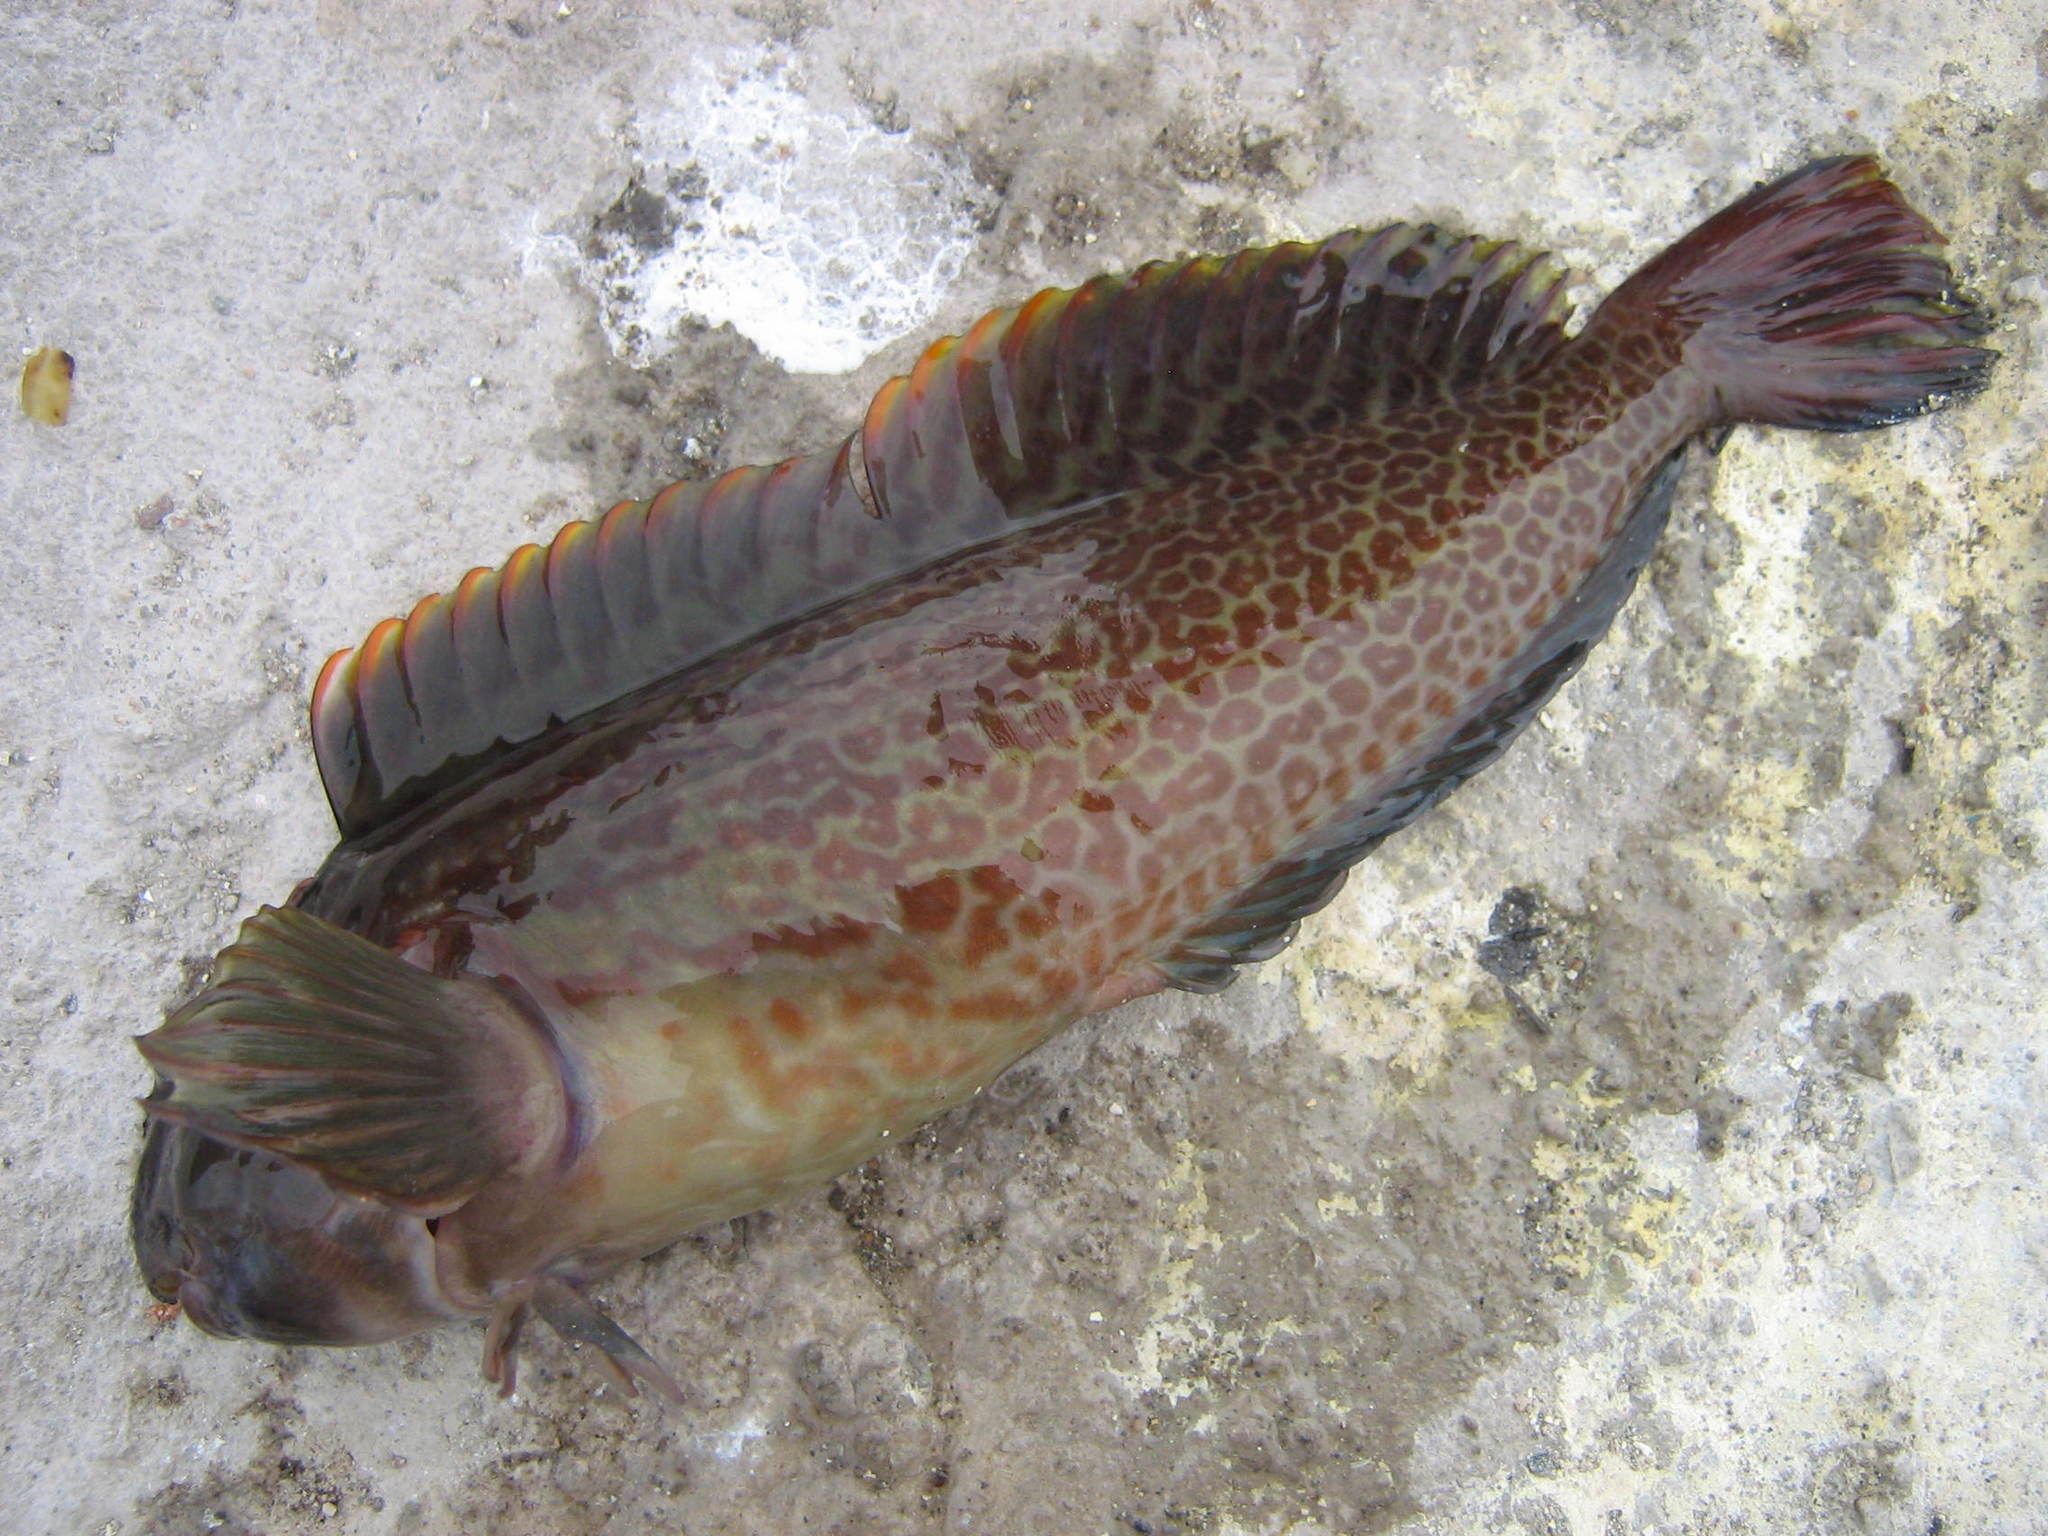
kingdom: Animalia
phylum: Chordata
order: Perciformes
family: Blenniidae
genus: Scartichthys
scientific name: Scartichthys gigas
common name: Giant blenny
